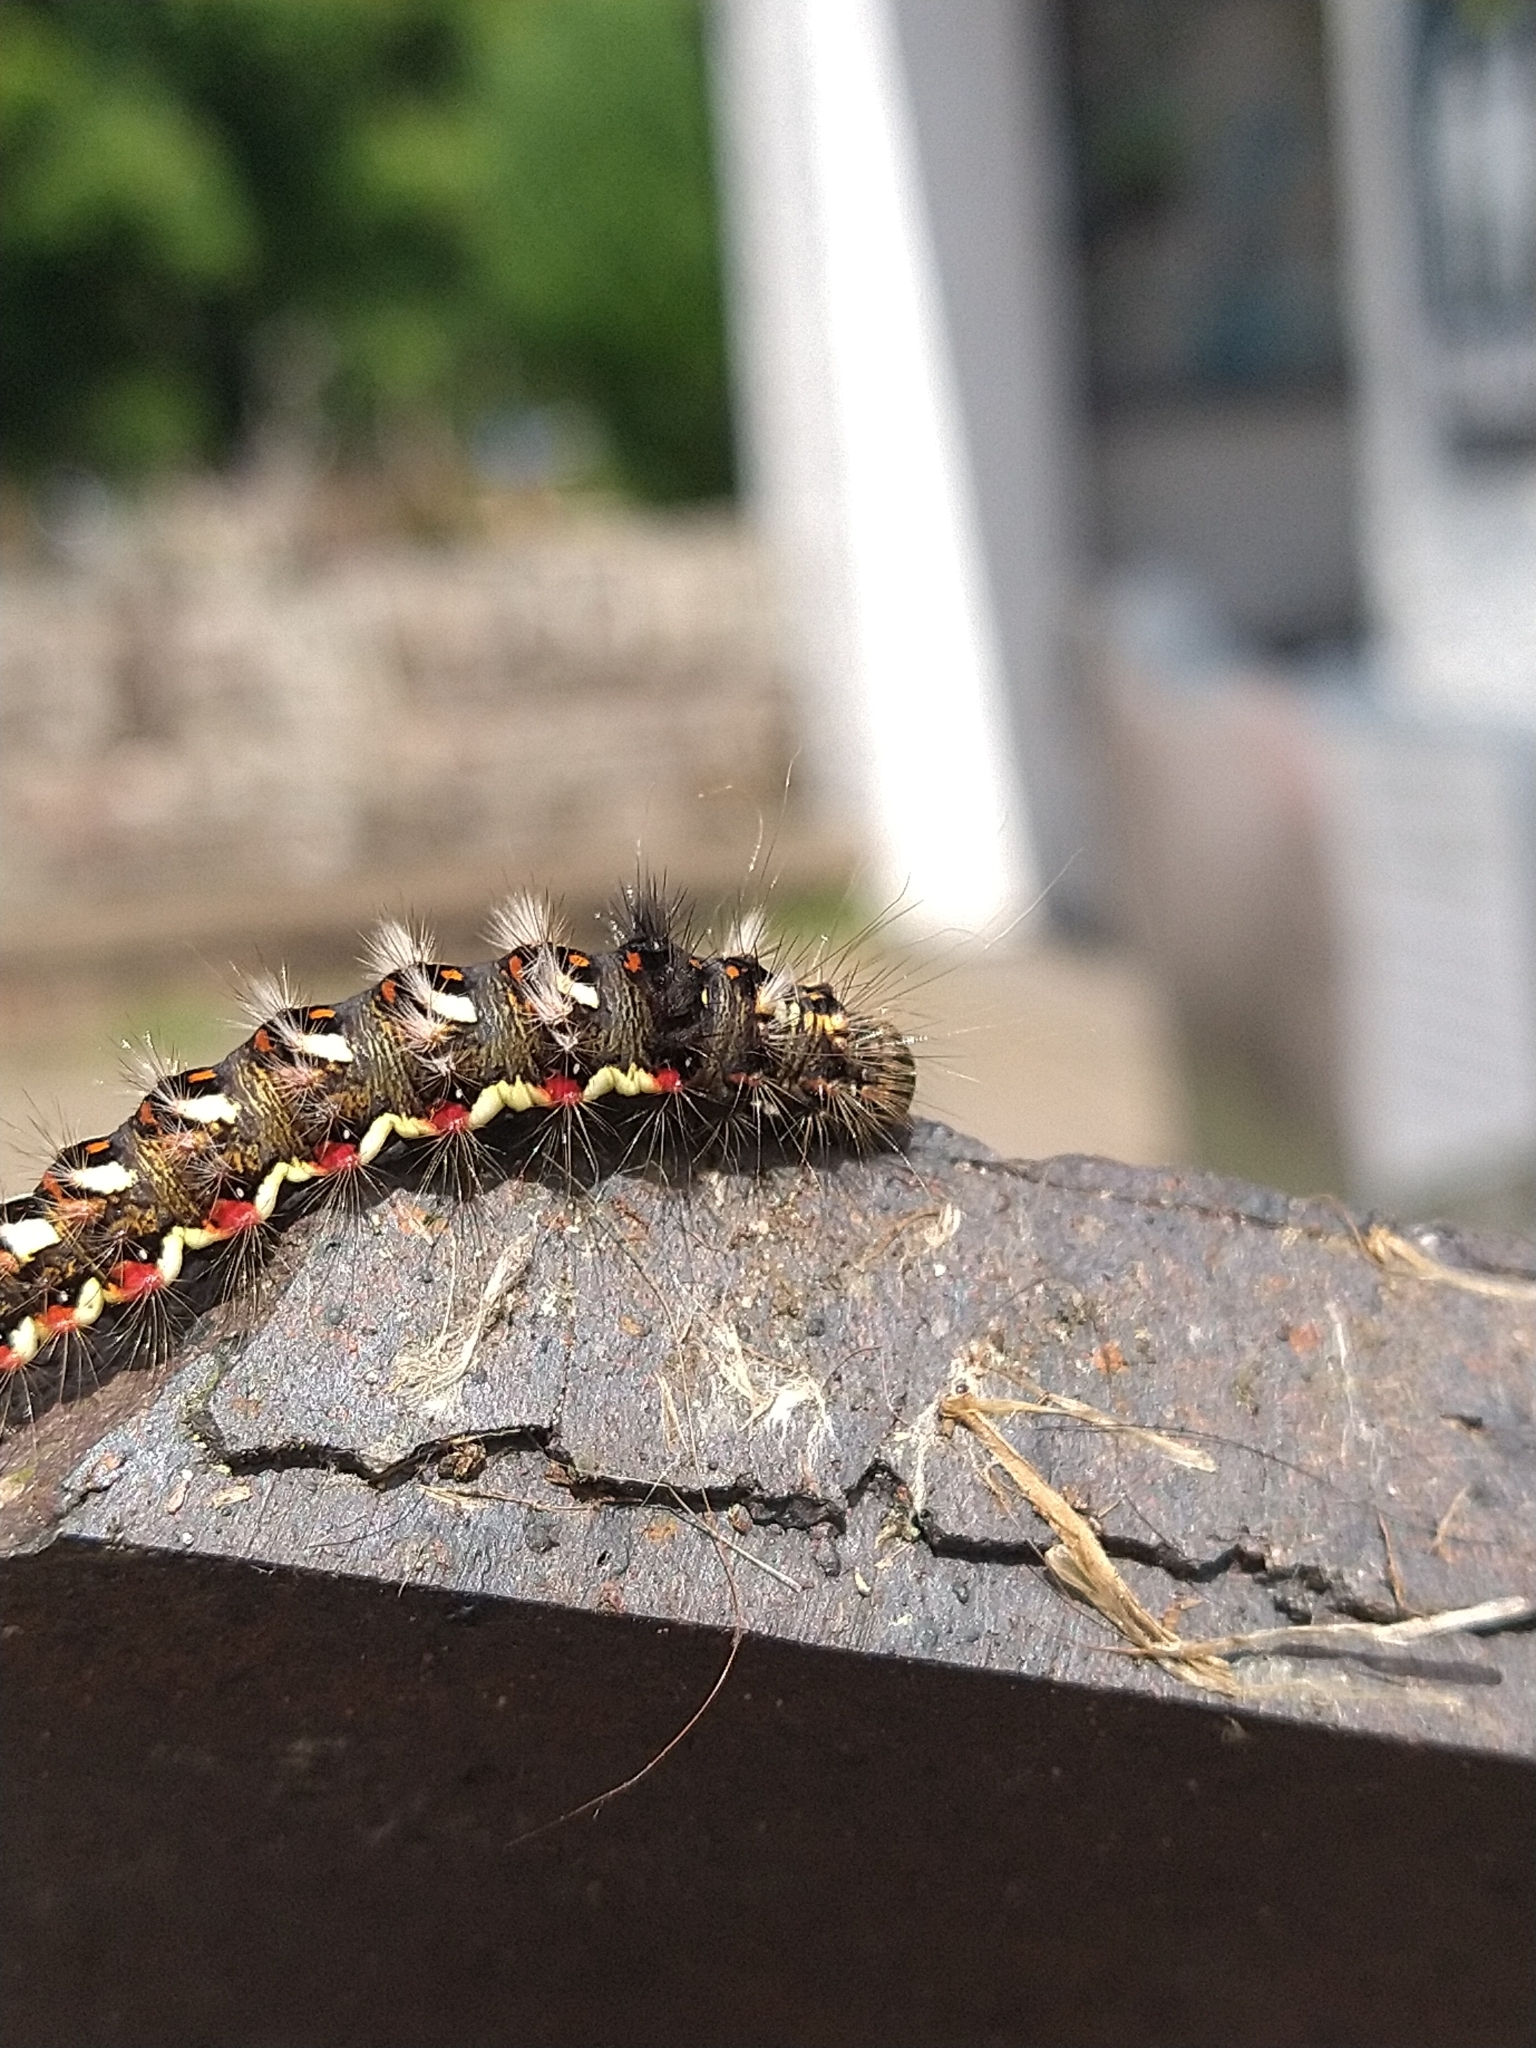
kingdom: Animalia
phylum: Arthropoda
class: Insecta
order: Lepidoptera
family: Noctuidae
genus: Acronicta
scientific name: Acronicta rumicis
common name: Knot grass
